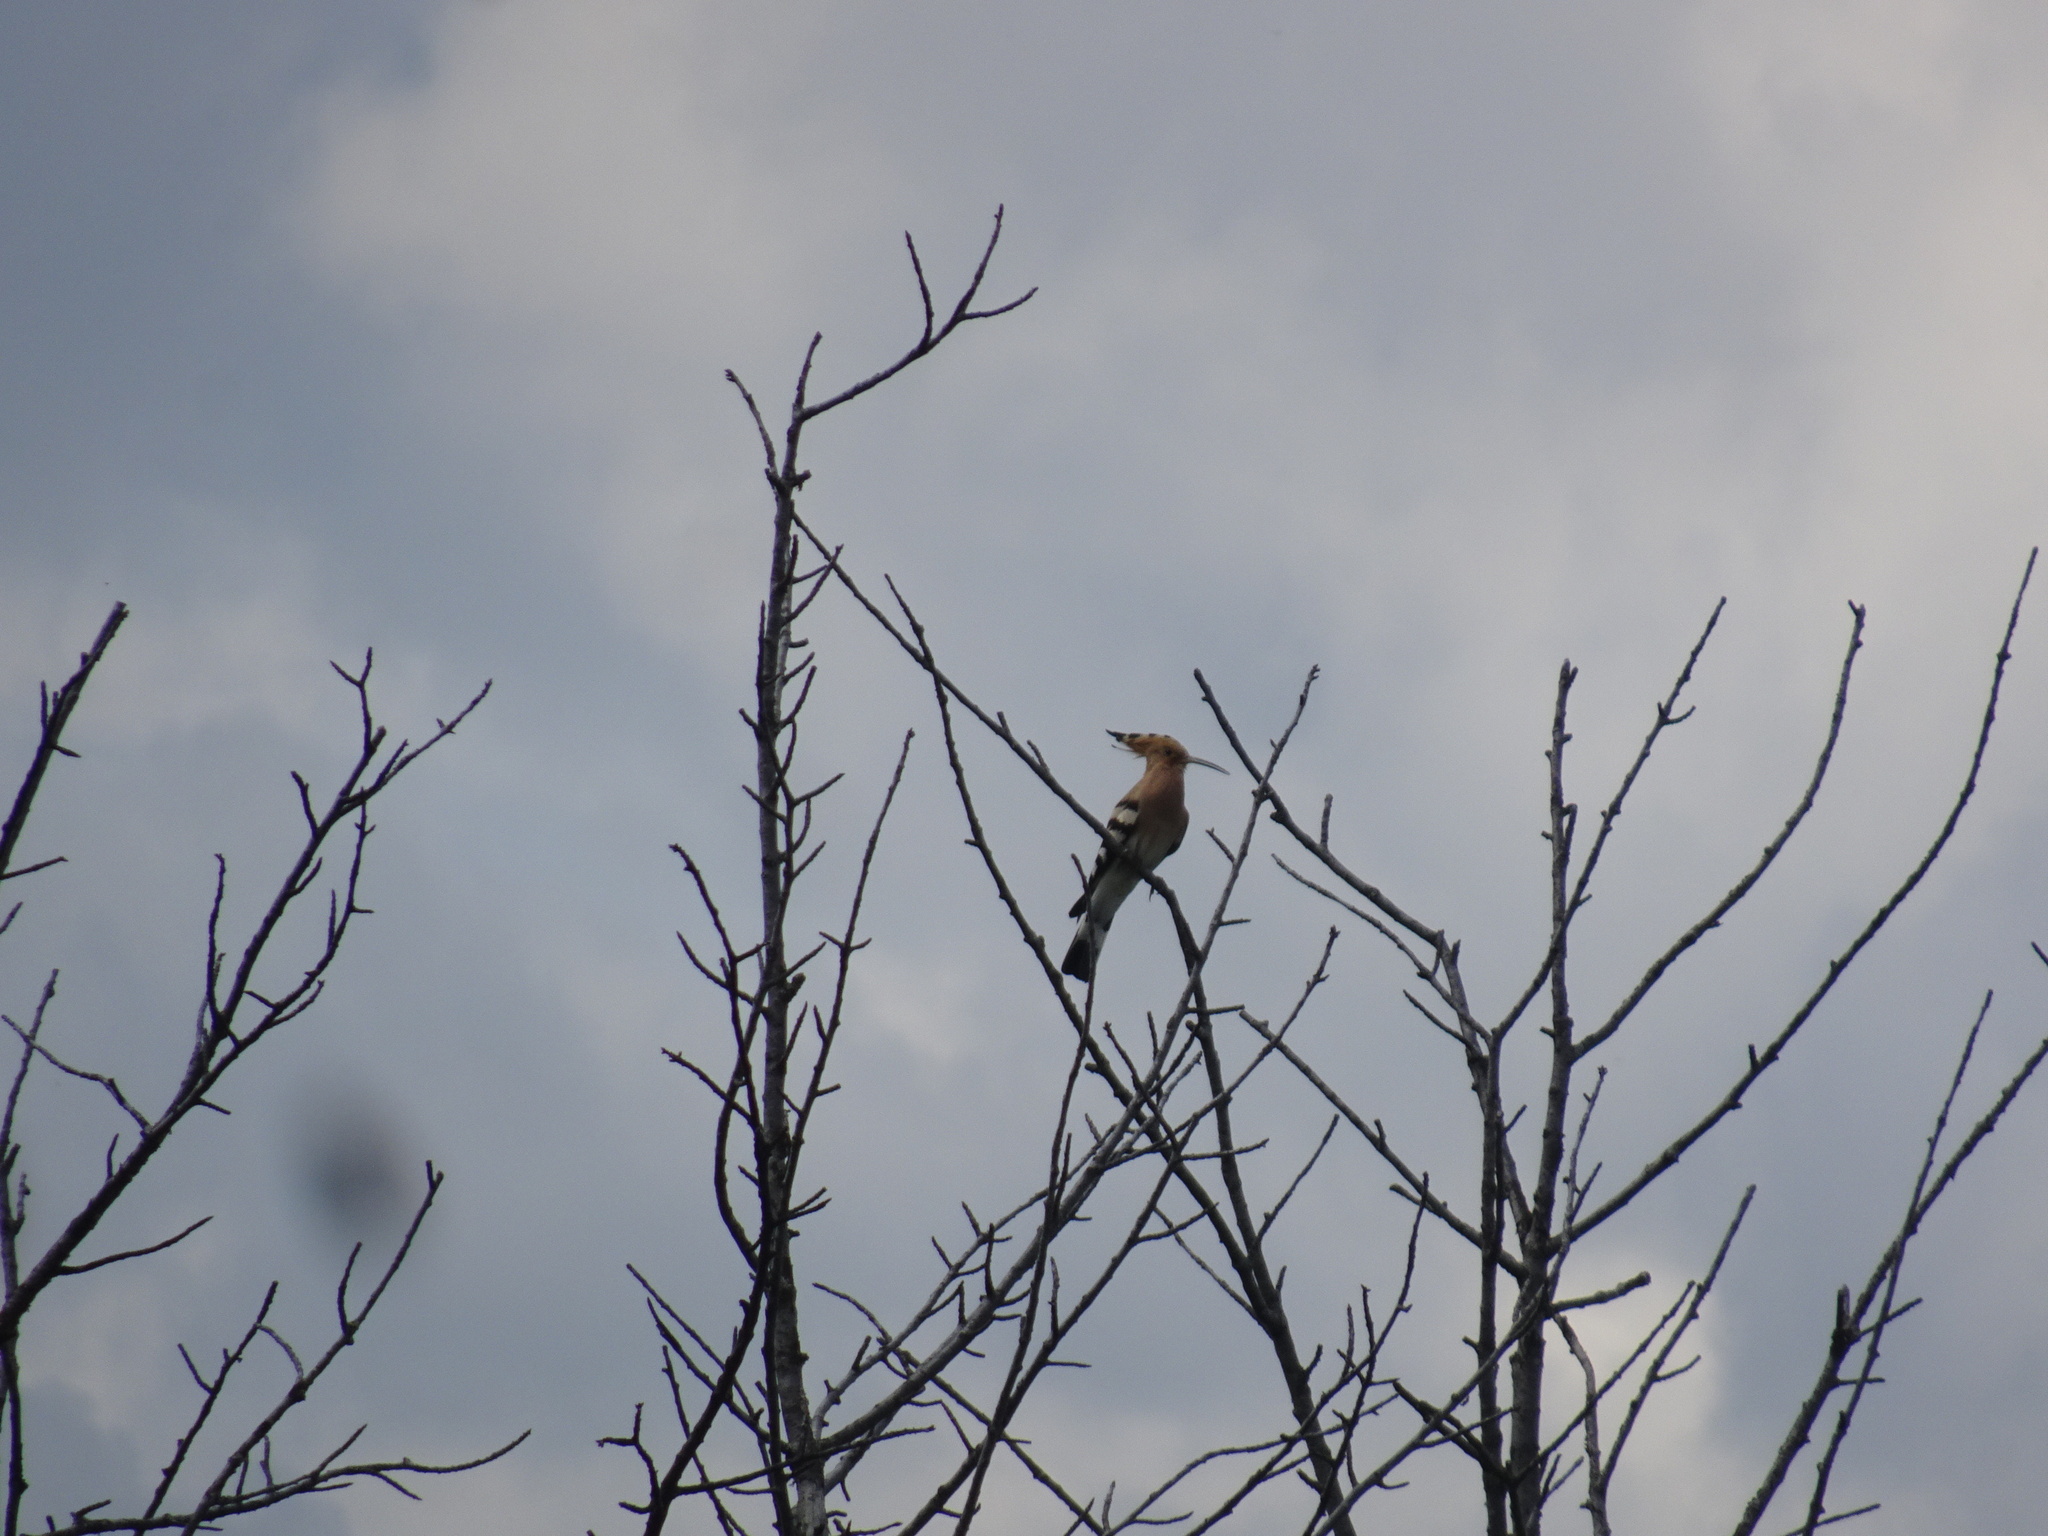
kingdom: Animalia
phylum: Chordata
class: Aves
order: Bucerotiformes
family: Upupidae
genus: Upupa
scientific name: Upupa epops
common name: Eurasian hoopoe
